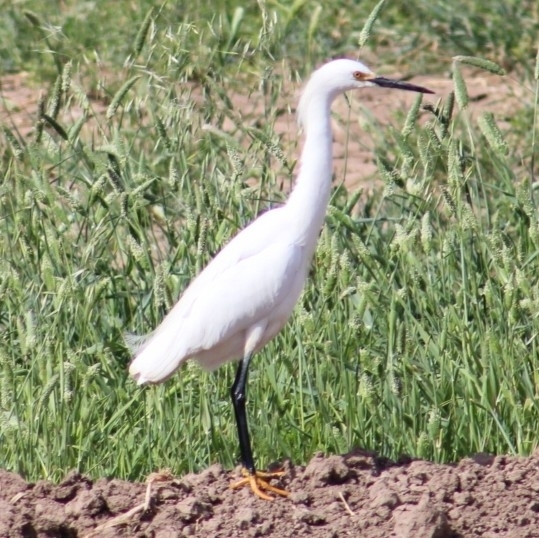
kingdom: Animalia
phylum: Chordata
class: Aves
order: Pelecaniformes
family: Ardeidae
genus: Egretta
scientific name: Egretta thula
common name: Snowy egret
